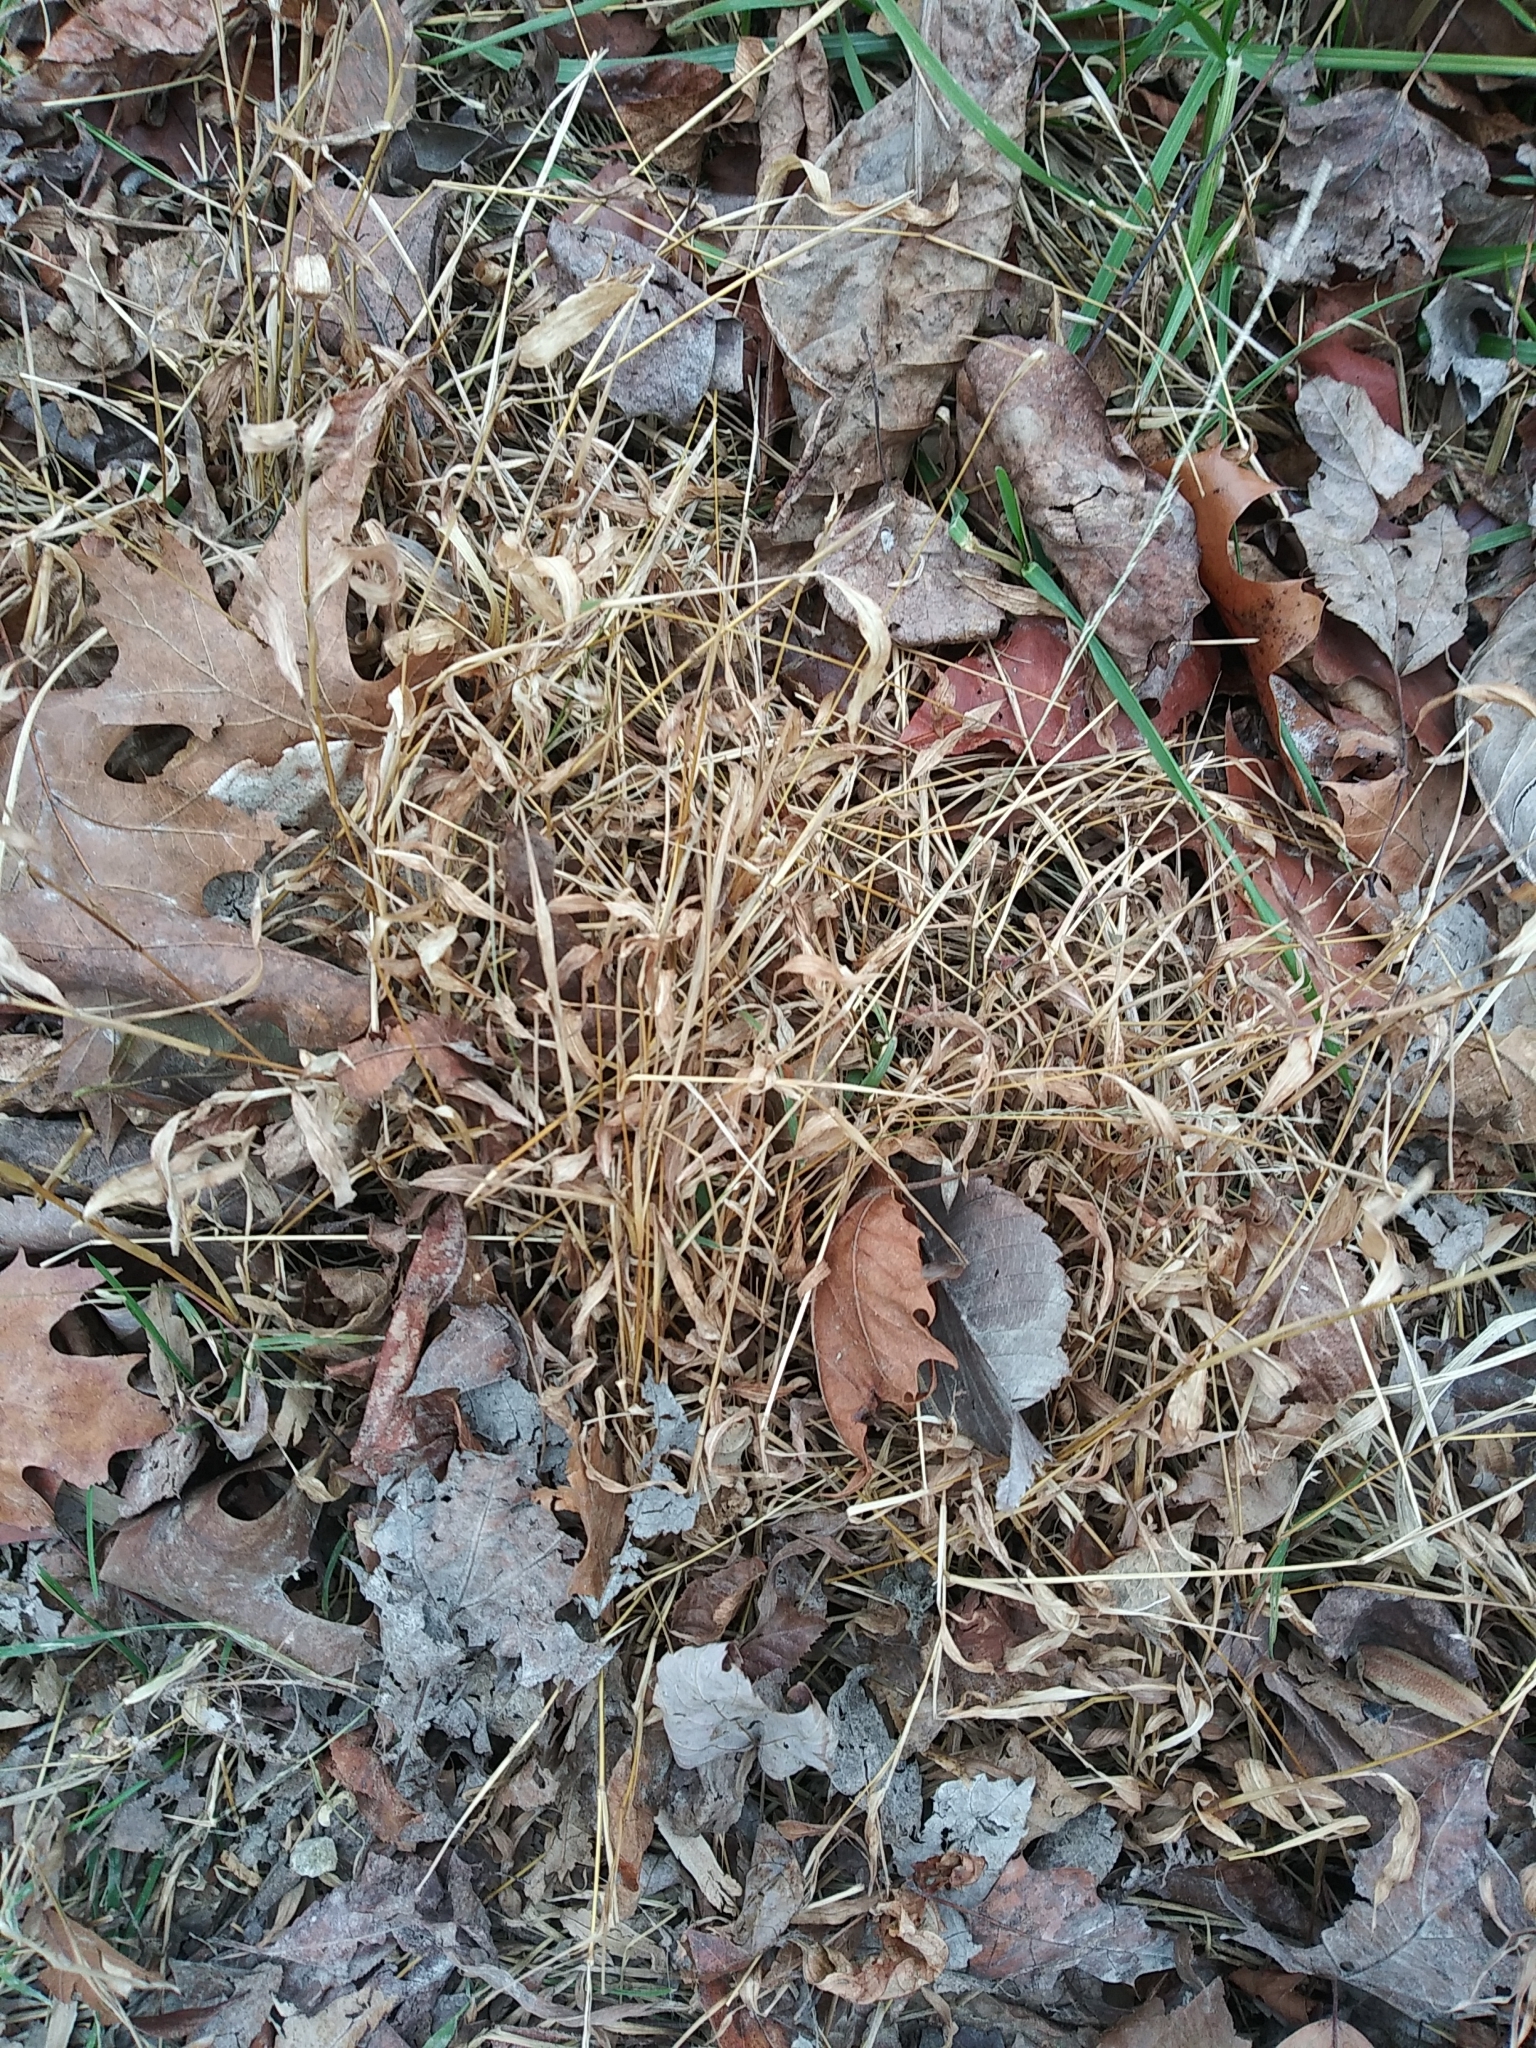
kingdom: Plantae
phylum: Tracheophyta
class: Liliopsida
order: Poales
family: Poaceae
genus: Microstegium
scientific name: Microstegium vimineum
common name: Japanese stiltgrass
